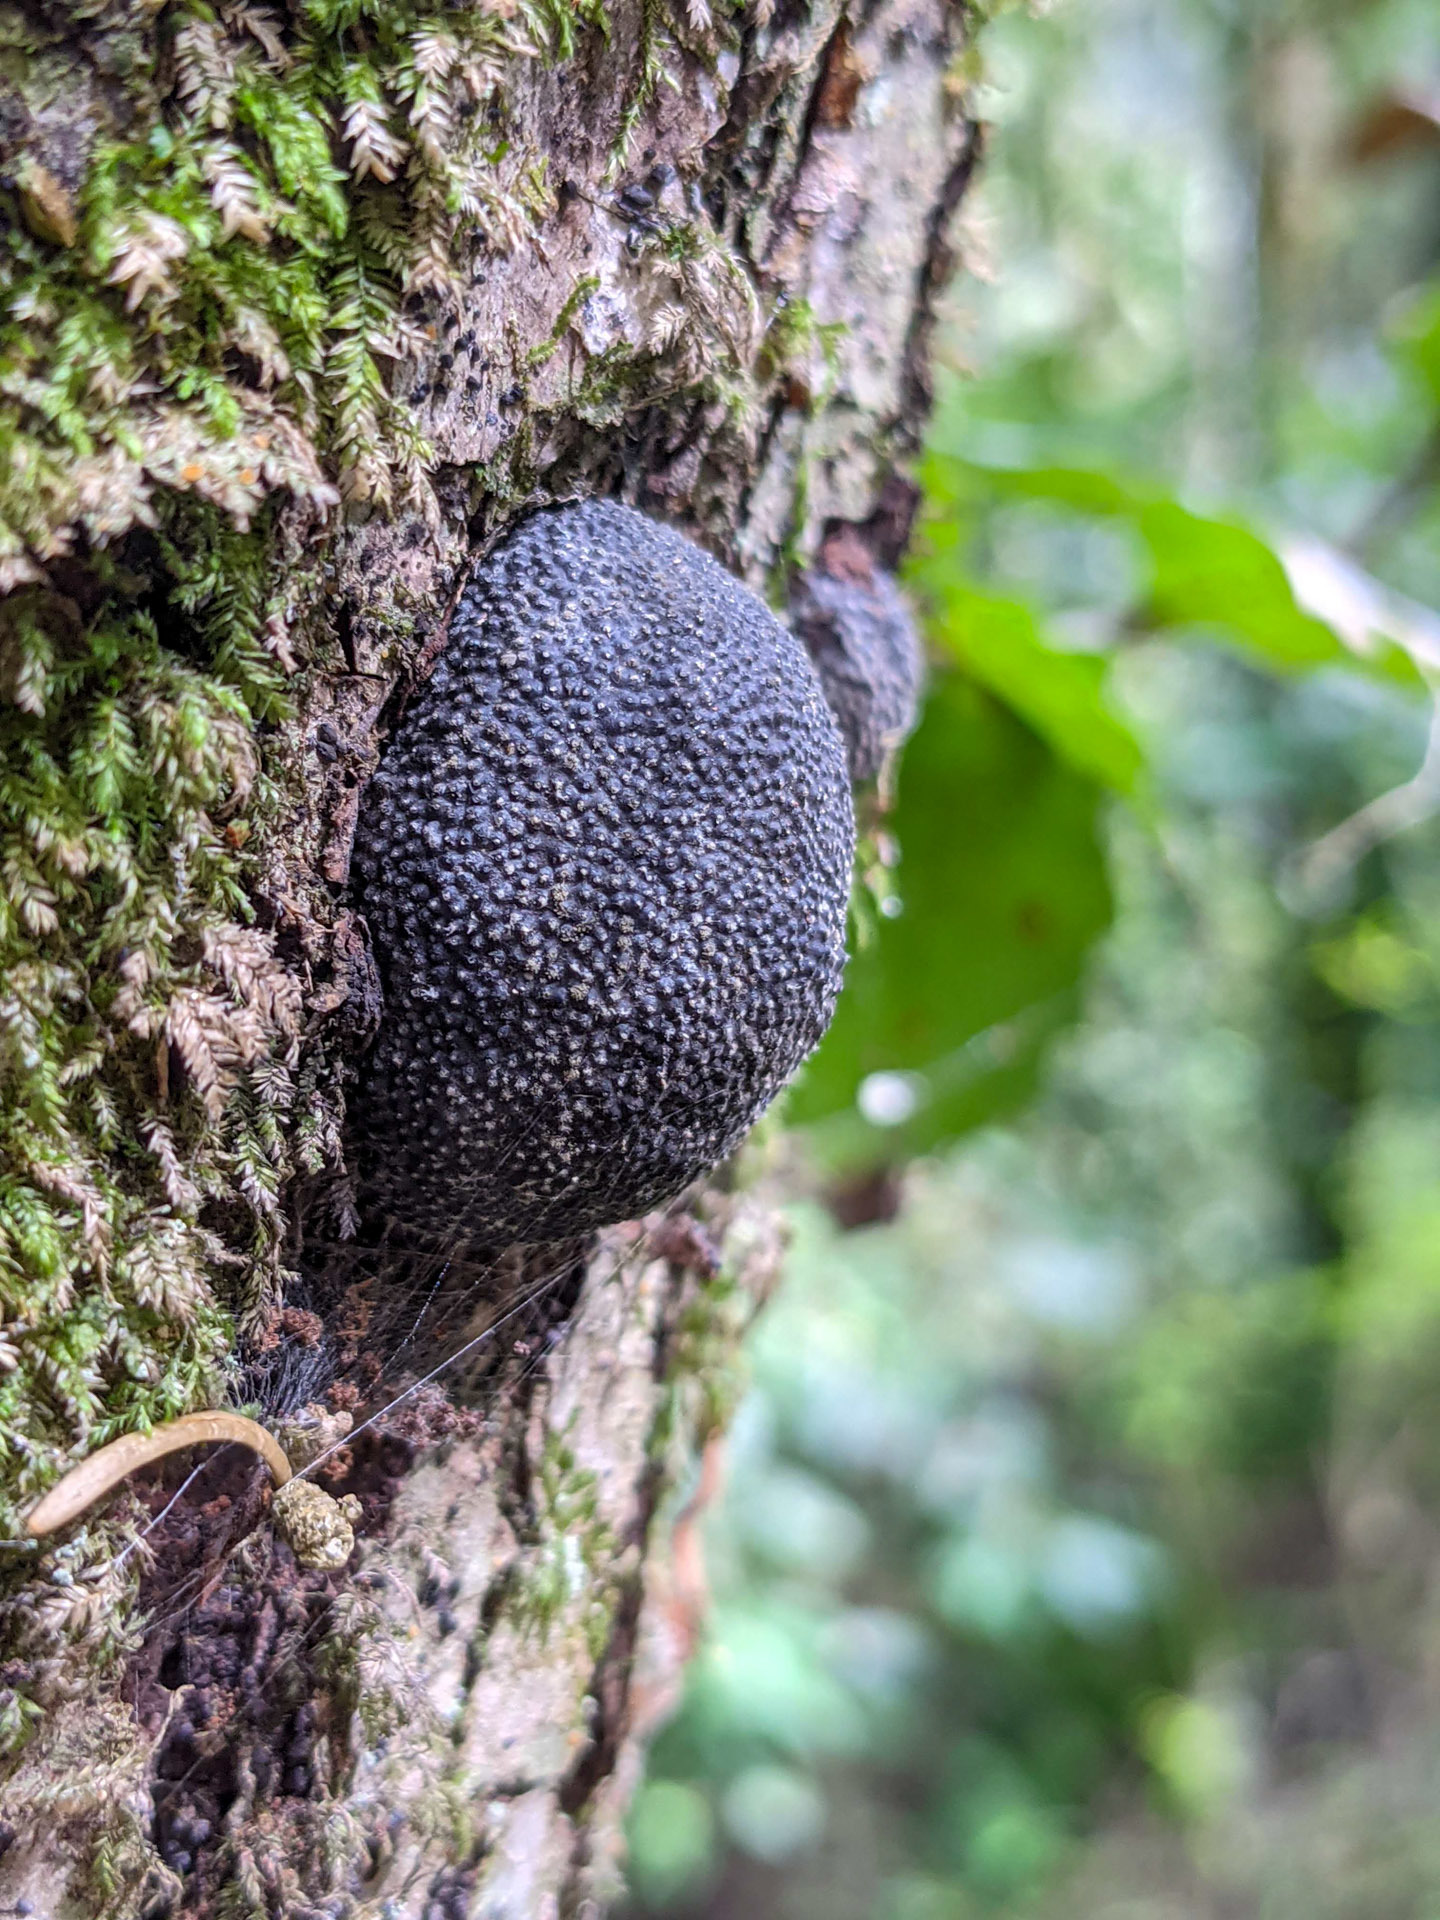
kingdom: Fungi
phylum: Ascomycota
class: Sordariomycetes
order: Xylariales
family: Hypoxylaceae
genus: Annulohypoxylon
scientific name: Annulohypoxylon thouarsianum
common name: Cramp balls
